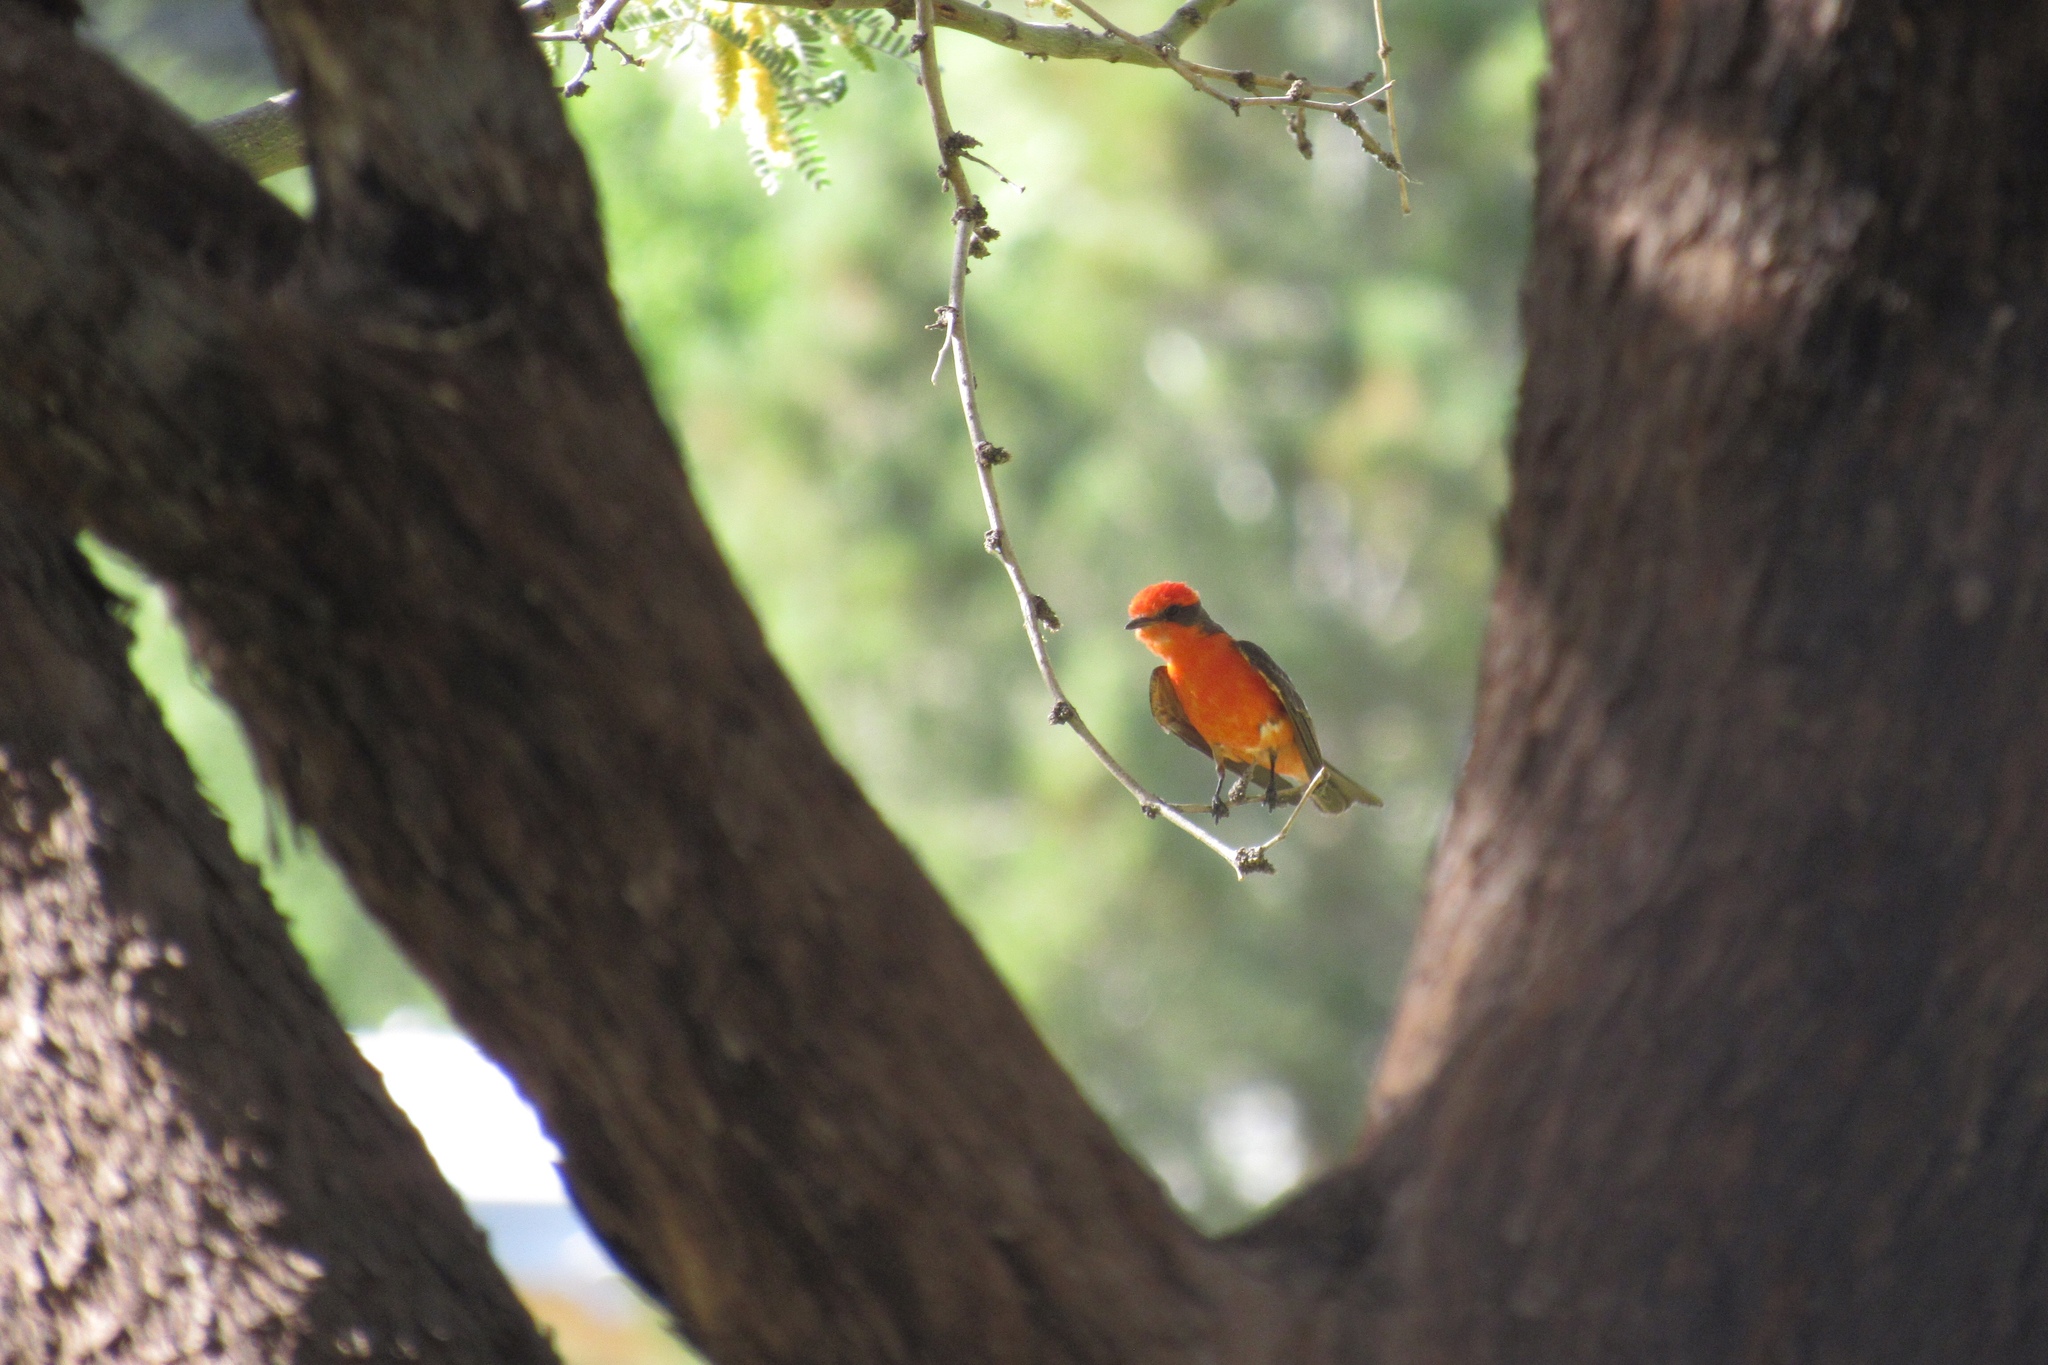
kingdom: Animalia
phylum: Chordata
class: Aves
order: Passeriformes
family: Tyrannidae
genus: Pyrocephalus
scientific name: Pyrocephalus rubinus
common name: Vermilion flycatcher
